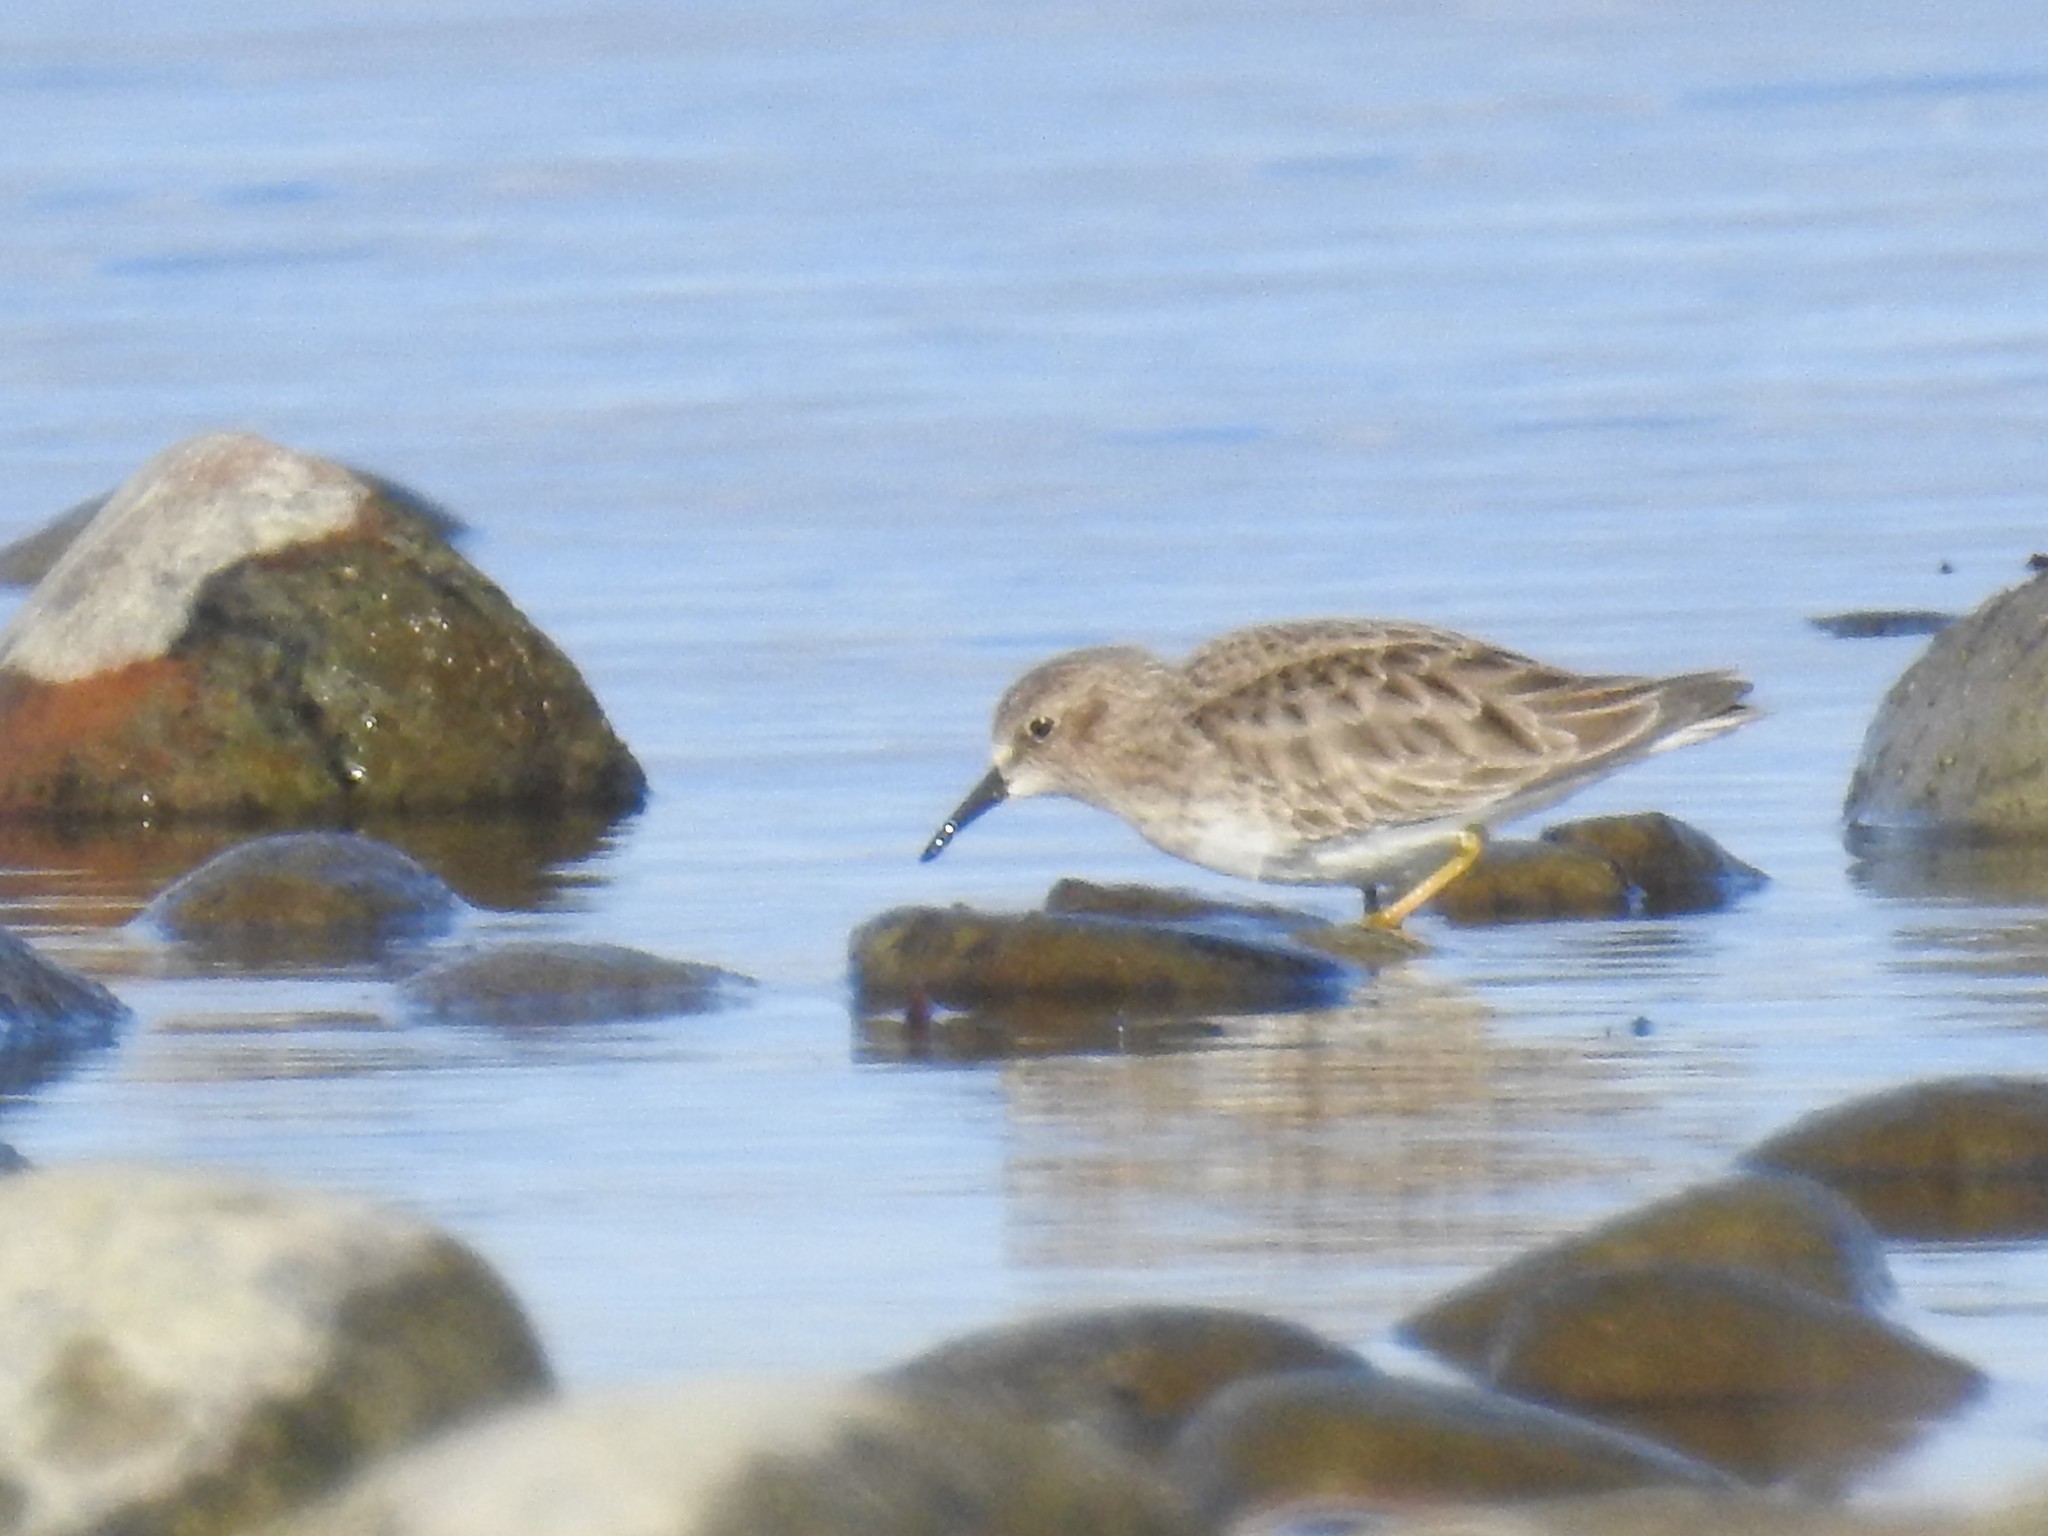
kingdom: Animalia
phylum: Chordata
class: Aves
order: Charadriiformes
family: Scolopacidae
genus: Calidris
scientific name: Calidris minutilla
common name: Least sandpiper
